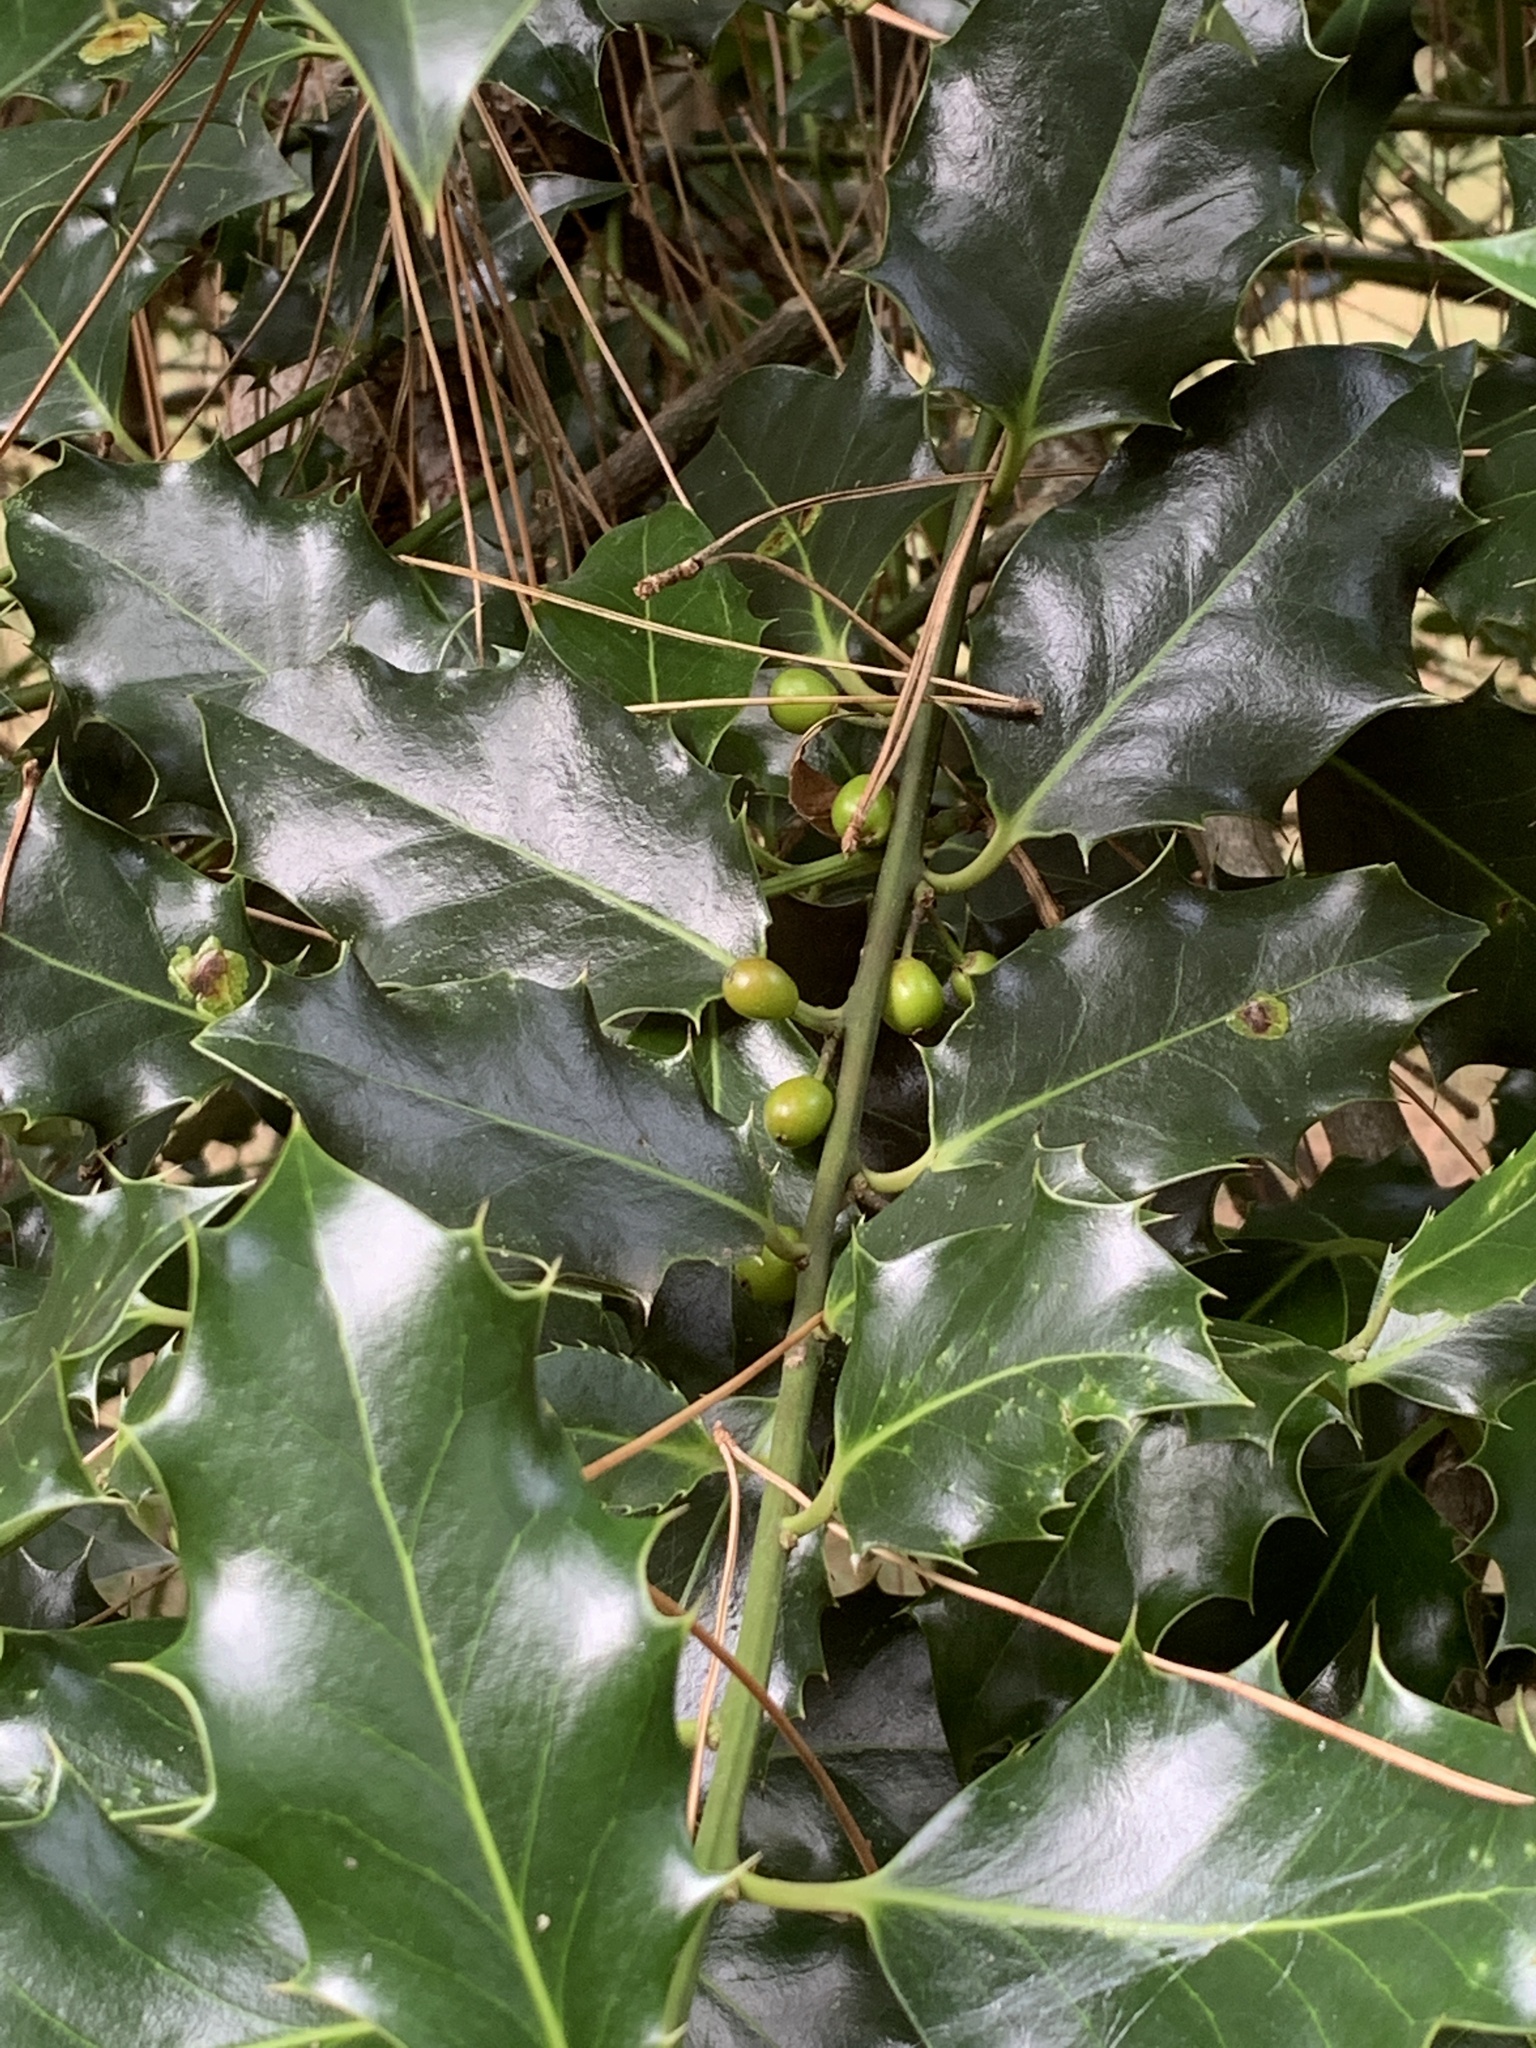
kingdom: Plantae
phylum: Tracheophyta
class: Magnoliopsida
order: Aquifoliales
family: Aquifoliaceae
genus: Ilex
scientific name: Ilex aquifolium
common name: English holly
